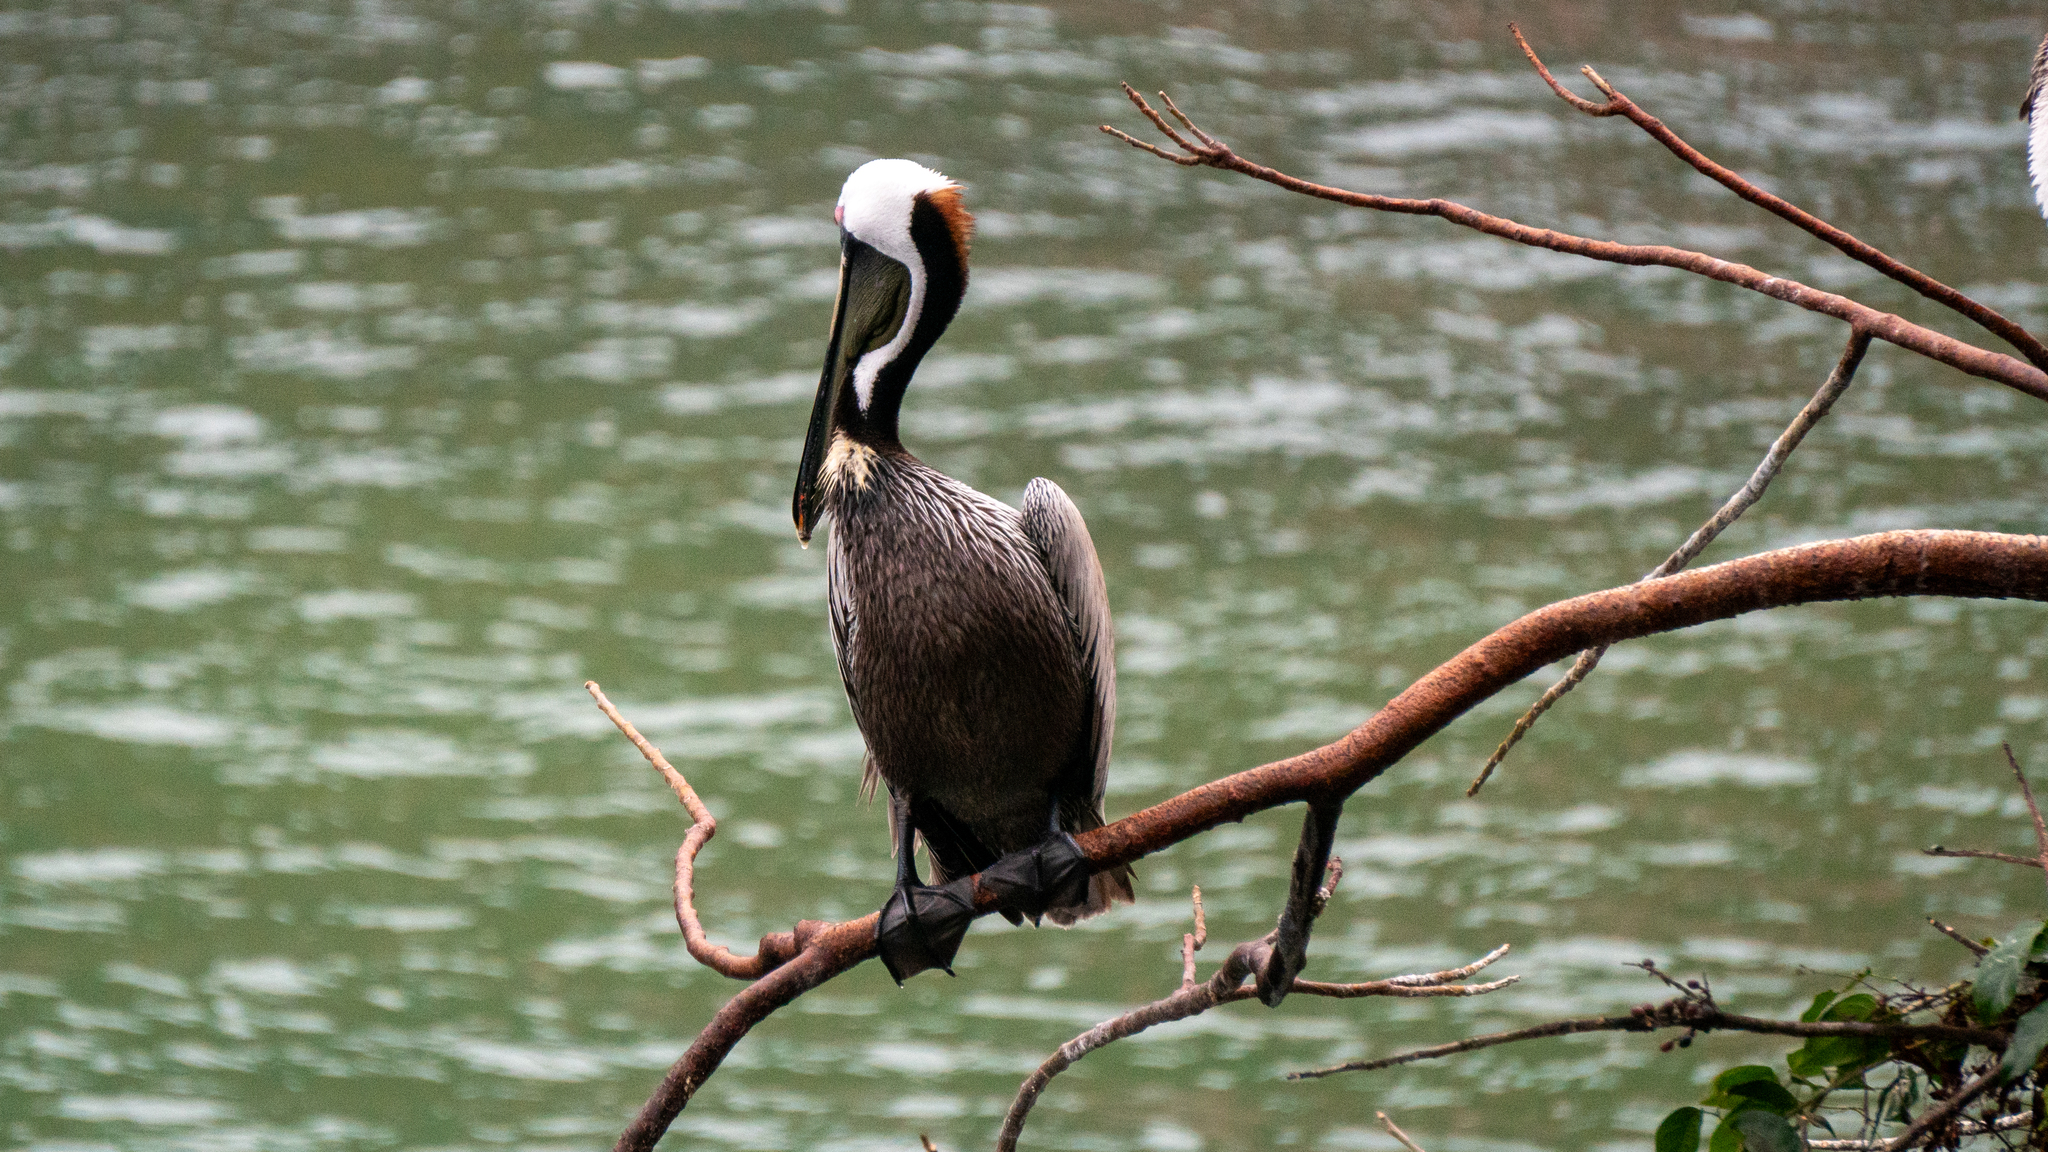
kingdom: Animalia
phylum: Chordata
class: Aves
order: Pelecaniformes
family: Pelecanidae
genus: Pelecanus
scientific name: Pelecanus occidentalis
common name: Brown pelican
